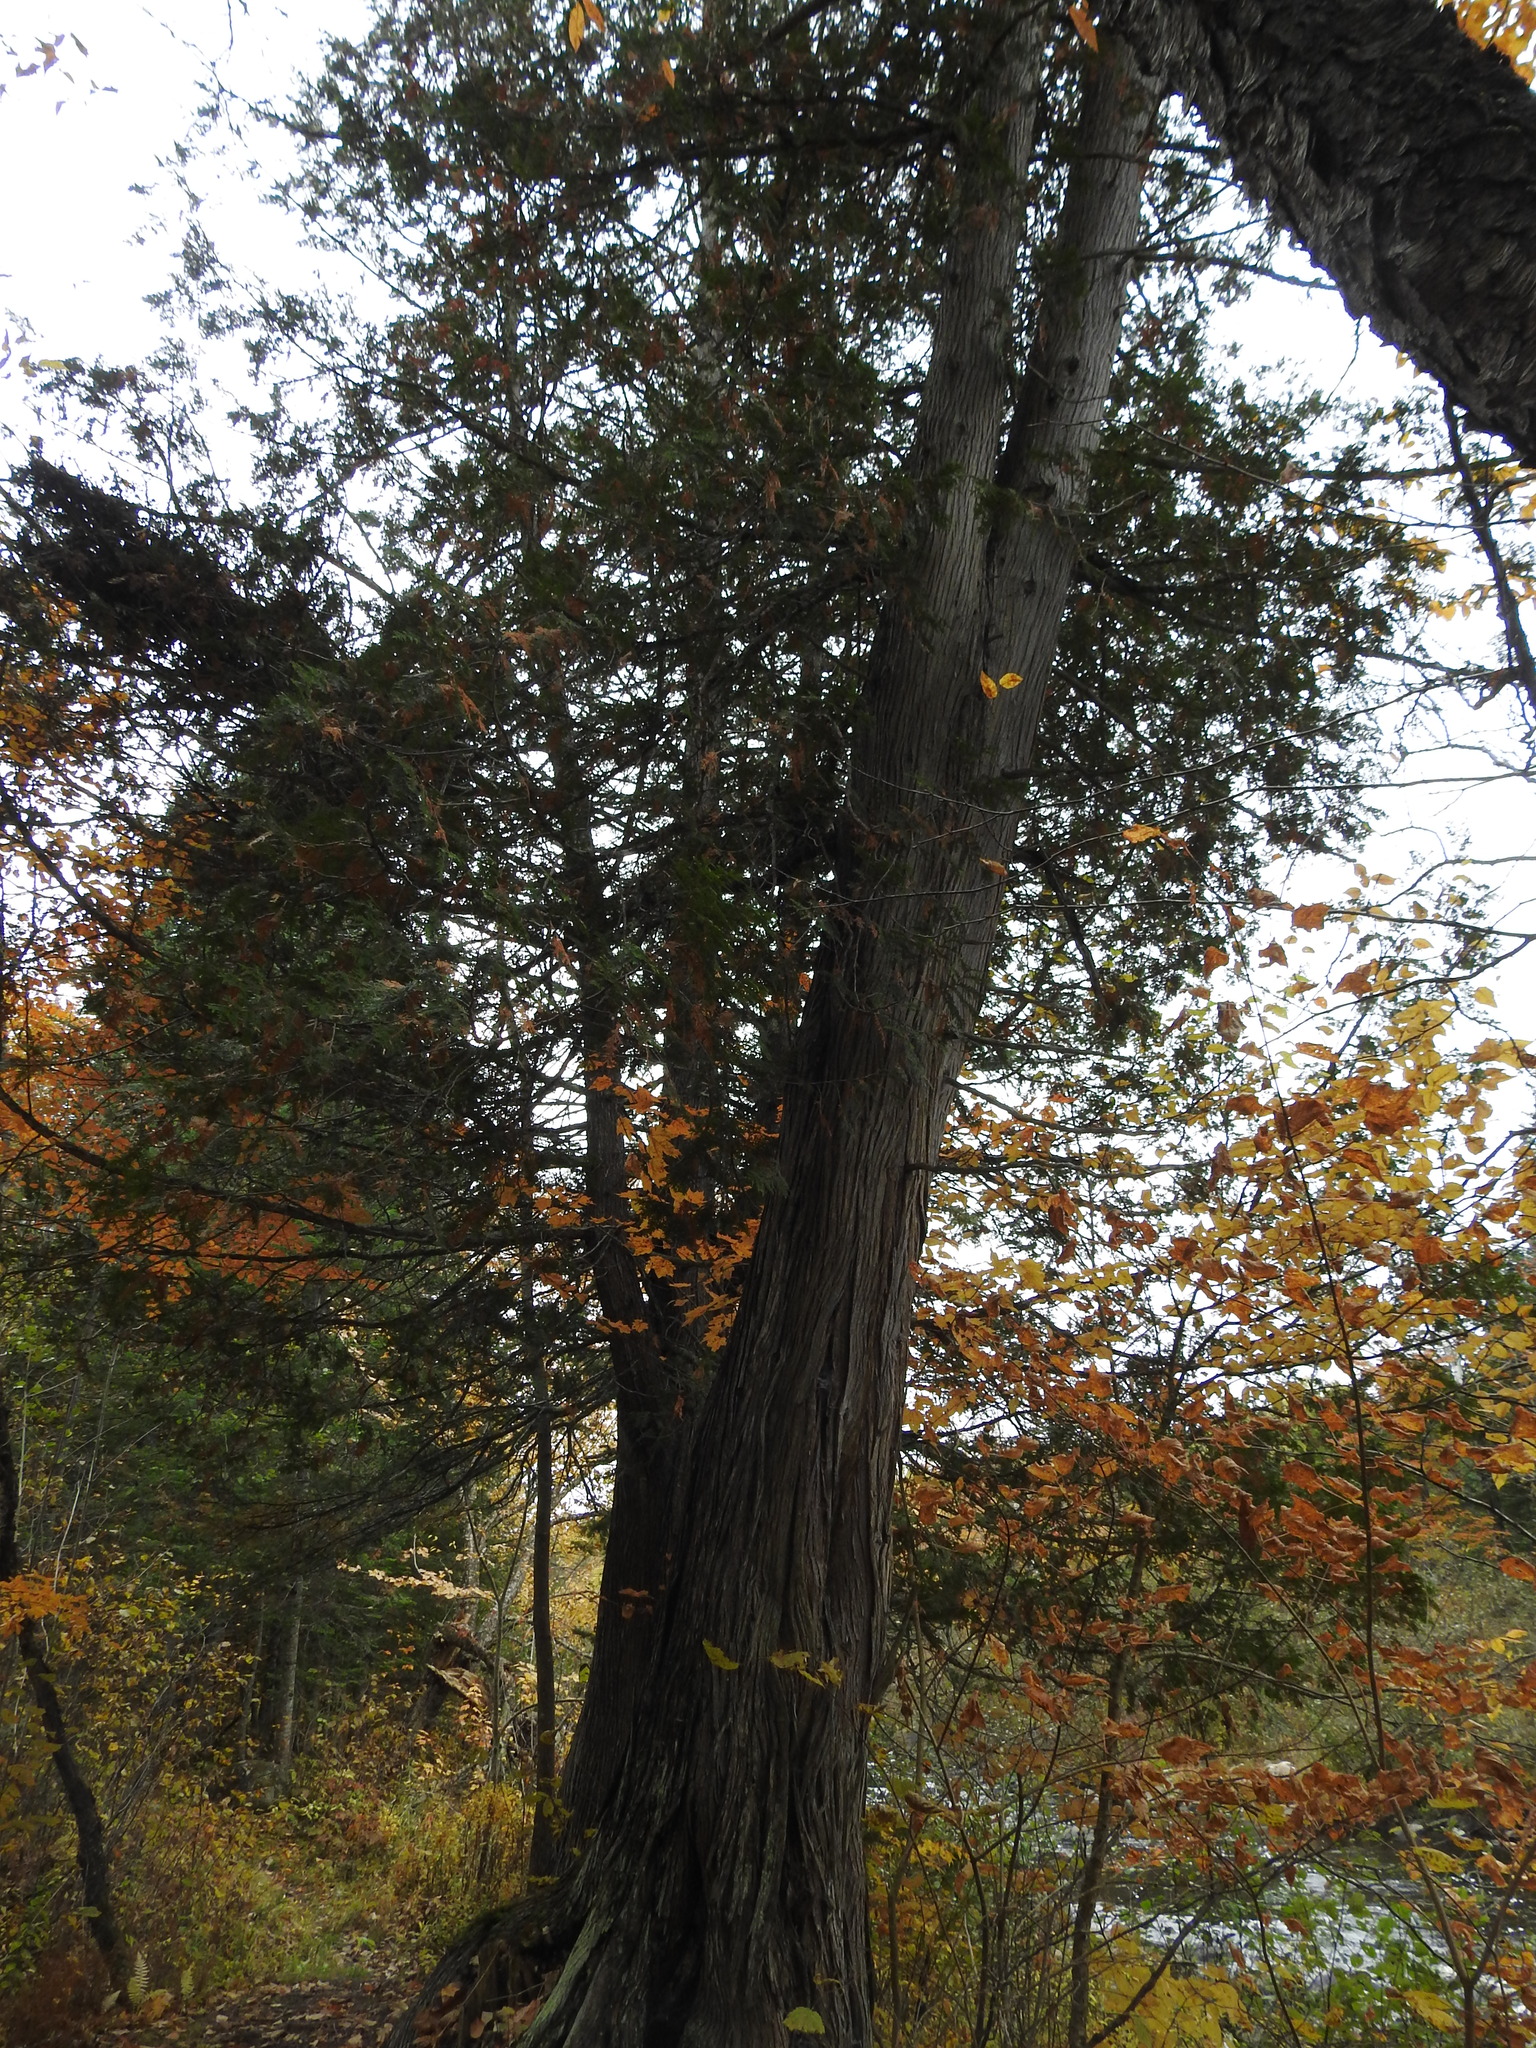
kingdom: Plantae
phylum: Tracheophyta
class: Pinopsida
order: Pinales
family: Cupressaceae
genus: Thuja
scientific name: Thuja occidentalis
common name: Northern white-cedar
